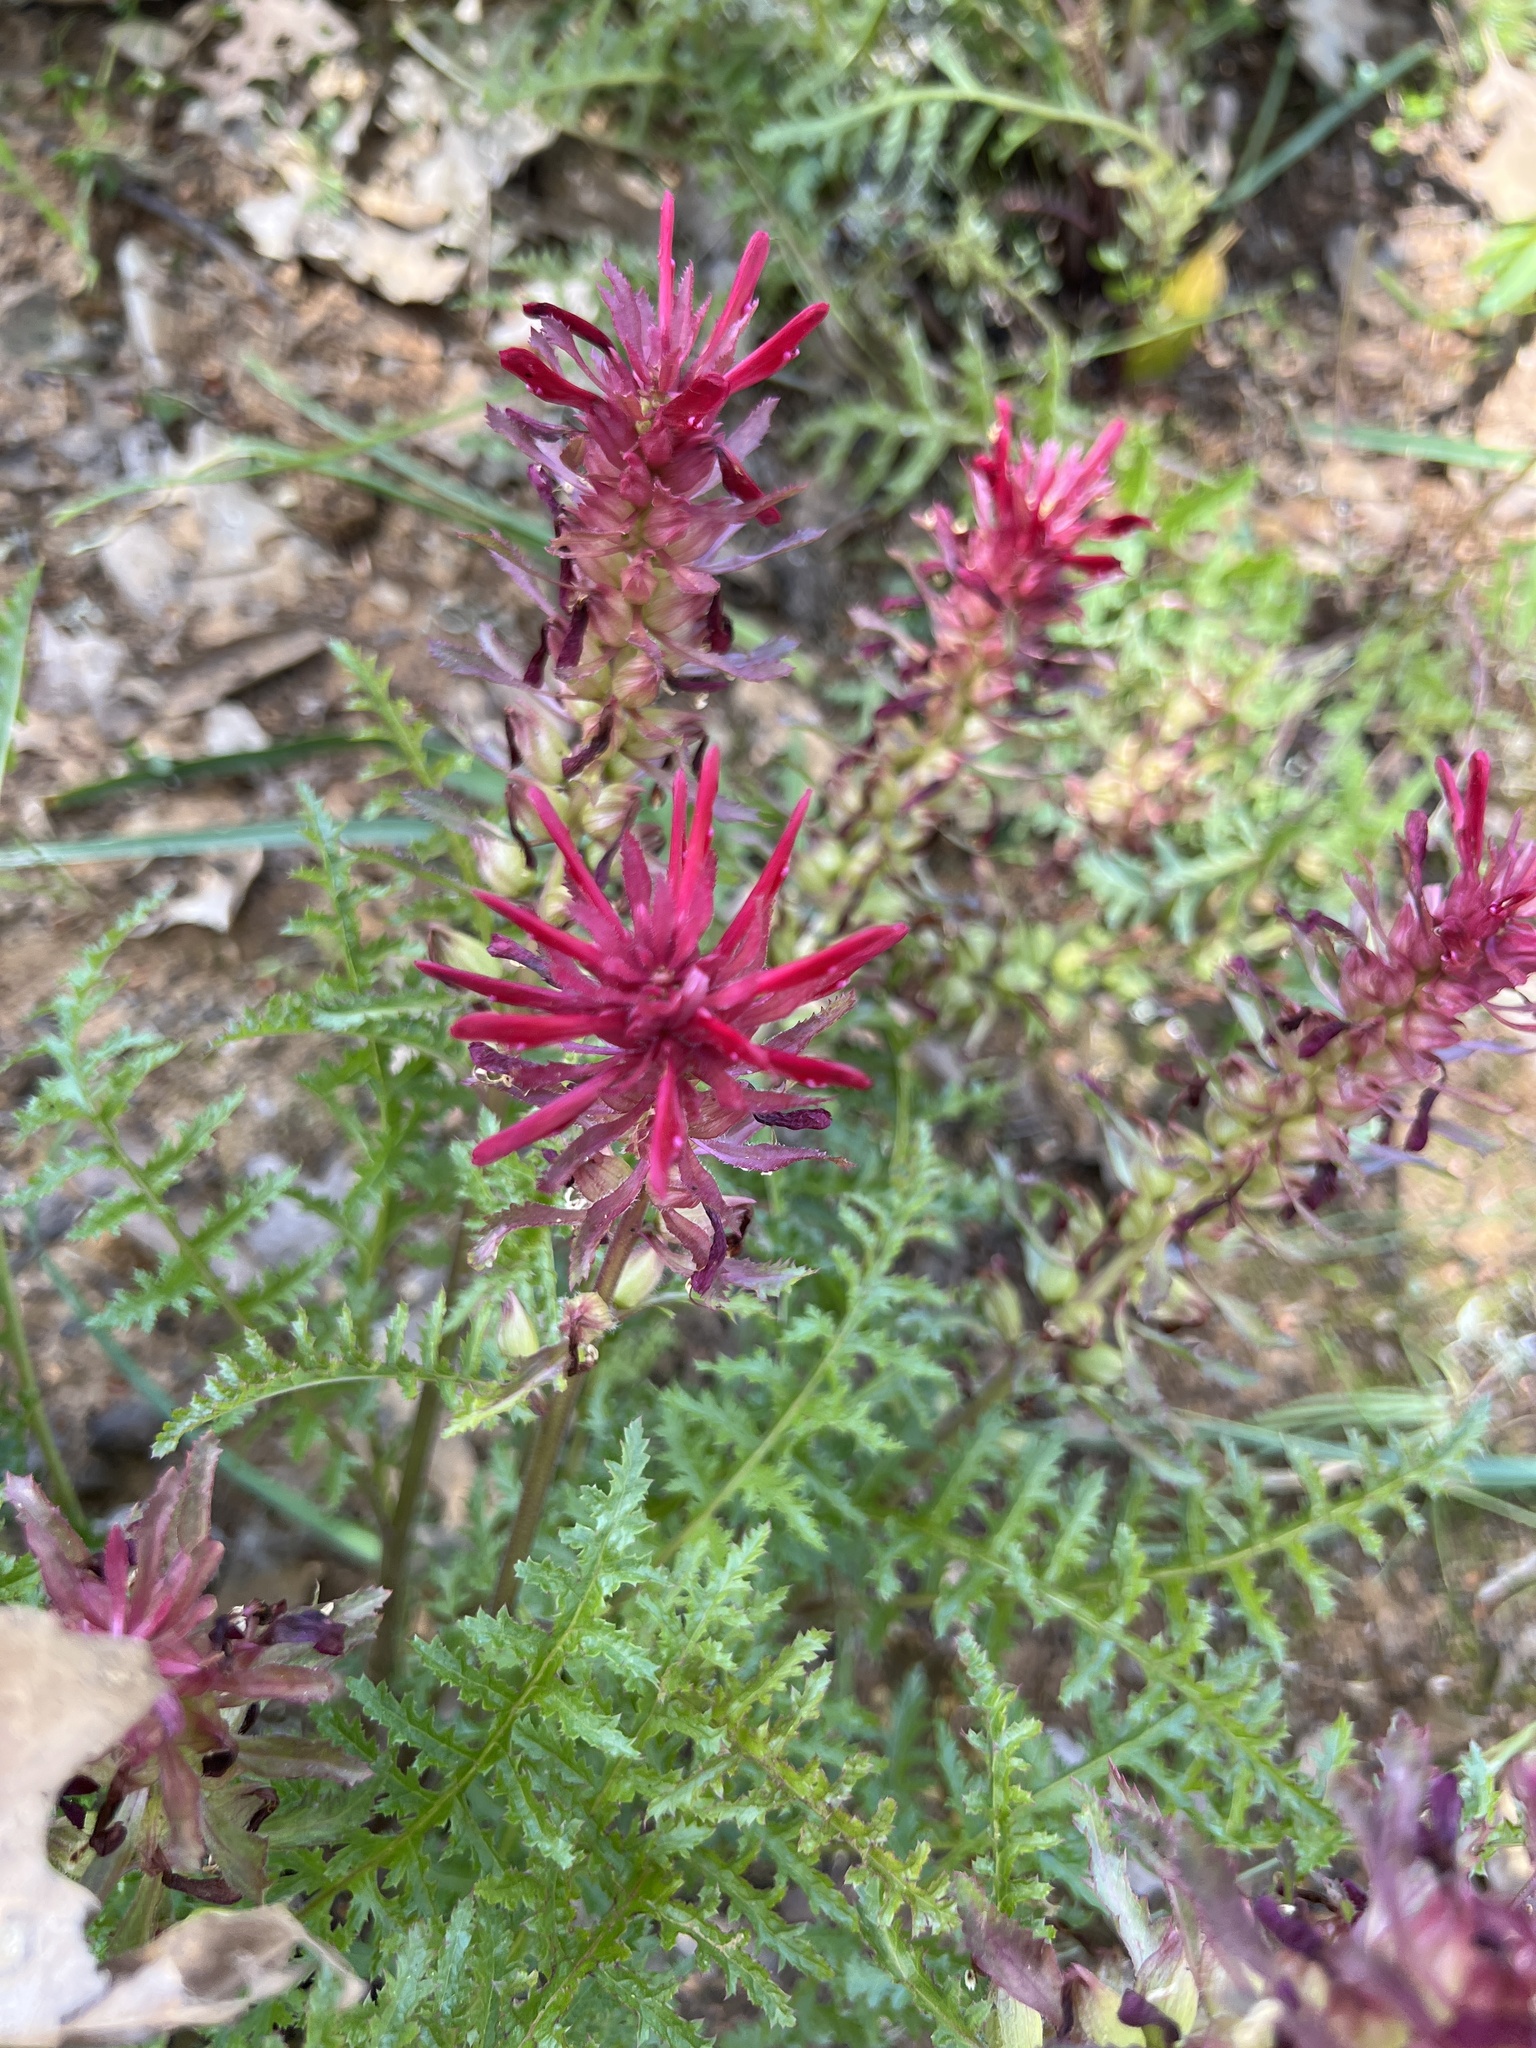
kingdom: Plantae
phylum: Tracheophyta
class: Magnoliopsida
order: Lamiales
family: Orobanchaceae
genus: Pedicularis
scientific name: Pedicularis densiflora
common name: Indian warrior
